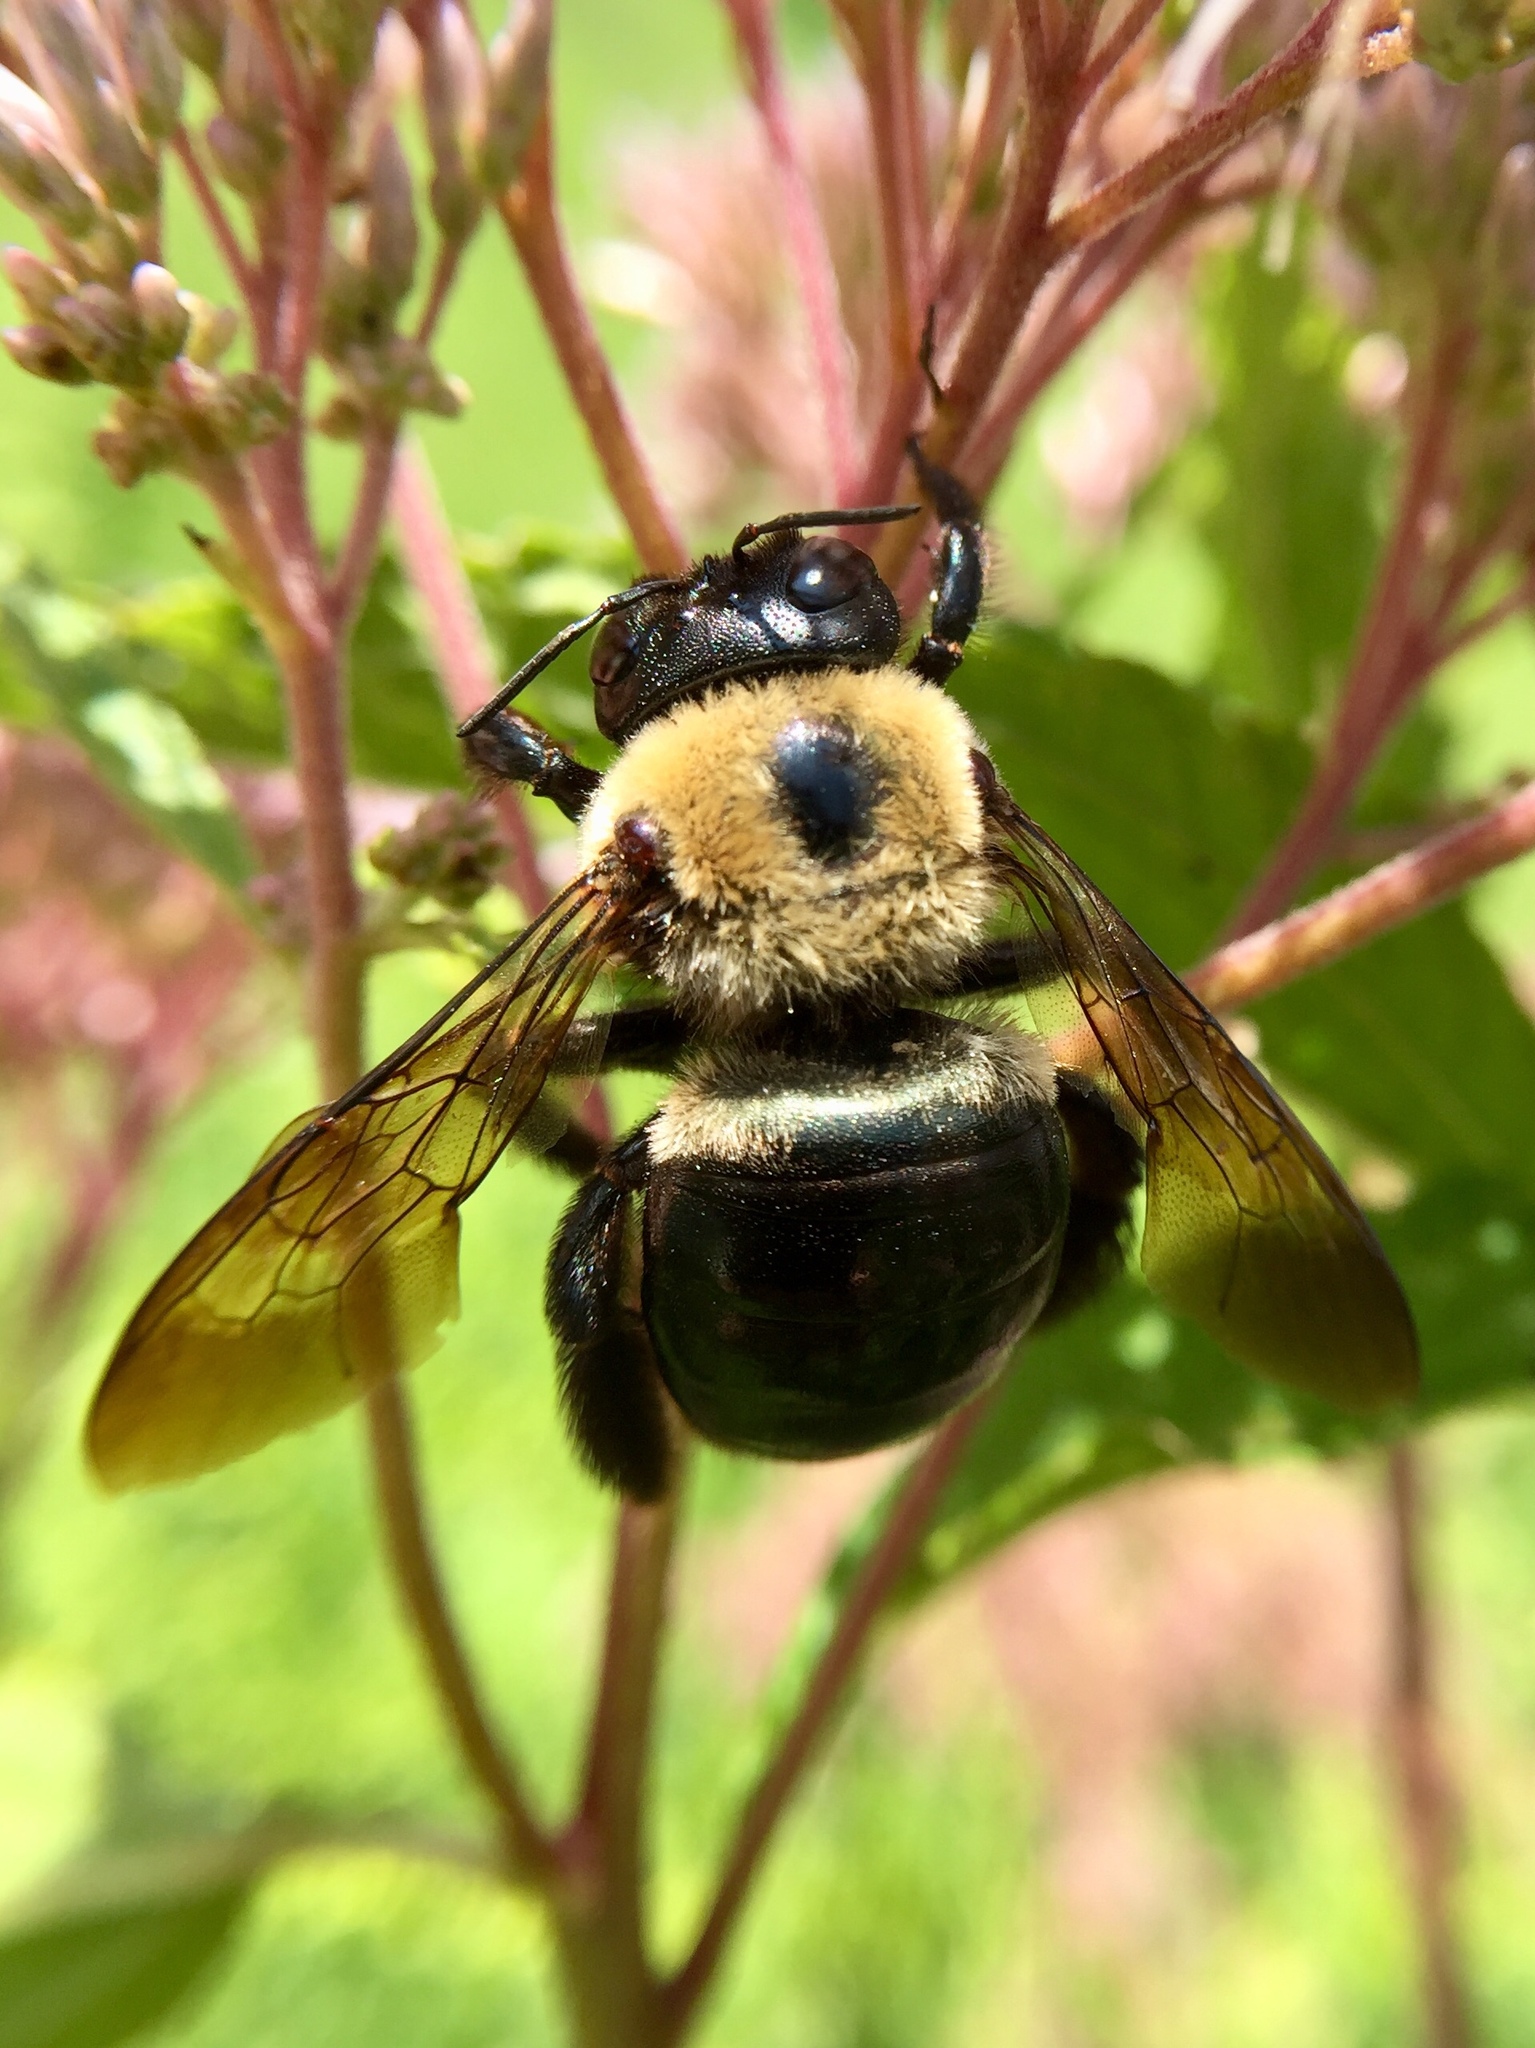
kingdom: Animalia
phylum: Arthropoda
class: Insecta
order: Hymenoptera
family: Apidae
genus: Xylocopa
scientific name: Xylocopa virginica
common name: Carpenter bee
